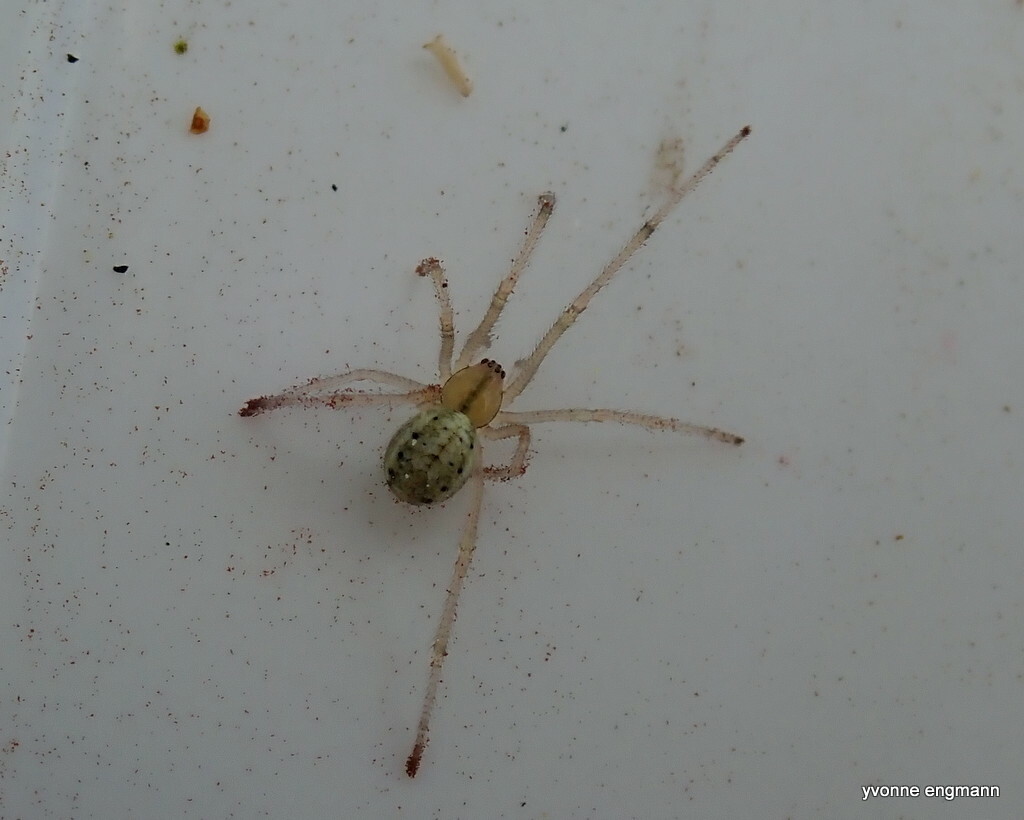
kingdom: Animalia
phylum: Arthropoda
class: Arachnida
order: Araneae
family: Theridiidae
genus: Enoplognatha
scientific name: Enoplognatha ovata
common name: Common candy-striped spider
